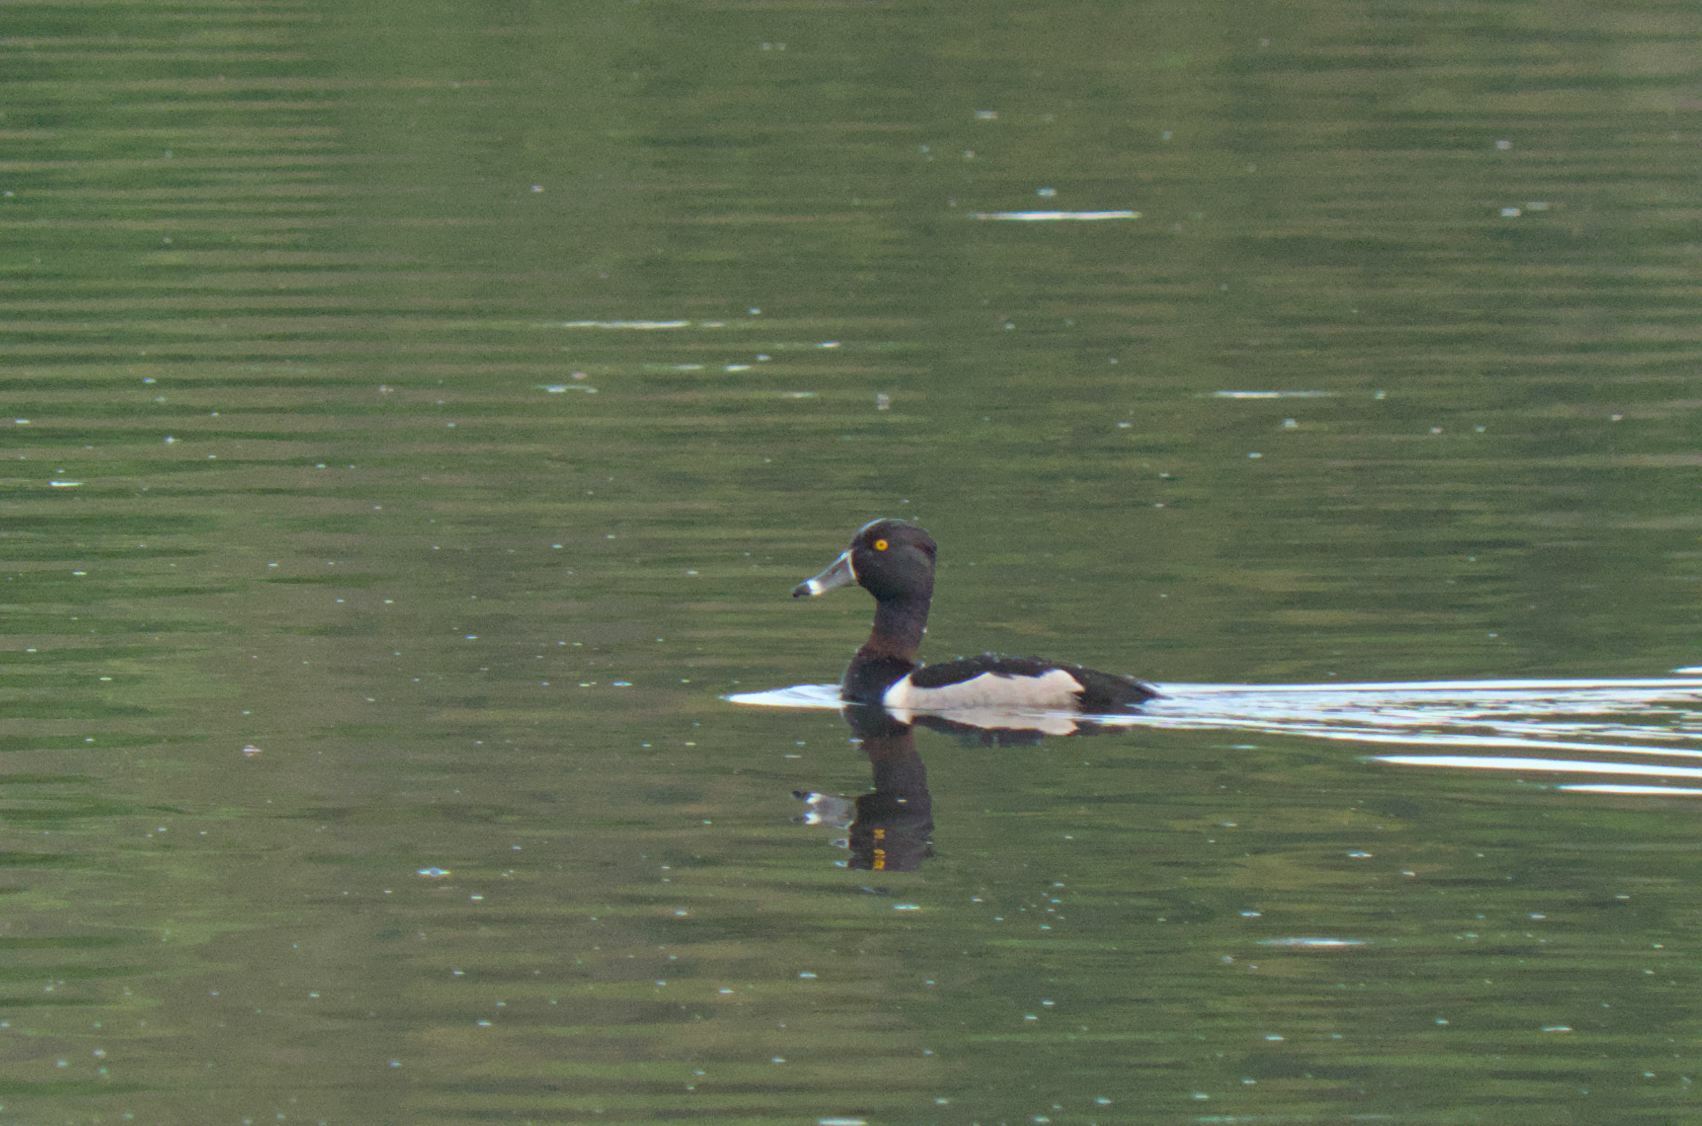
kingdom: Animalia
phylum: Chordata
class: Aves
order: Anseriformes
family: Anatidae
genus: Aythya
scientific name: Aythya collaris
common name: Ring-necked duck
